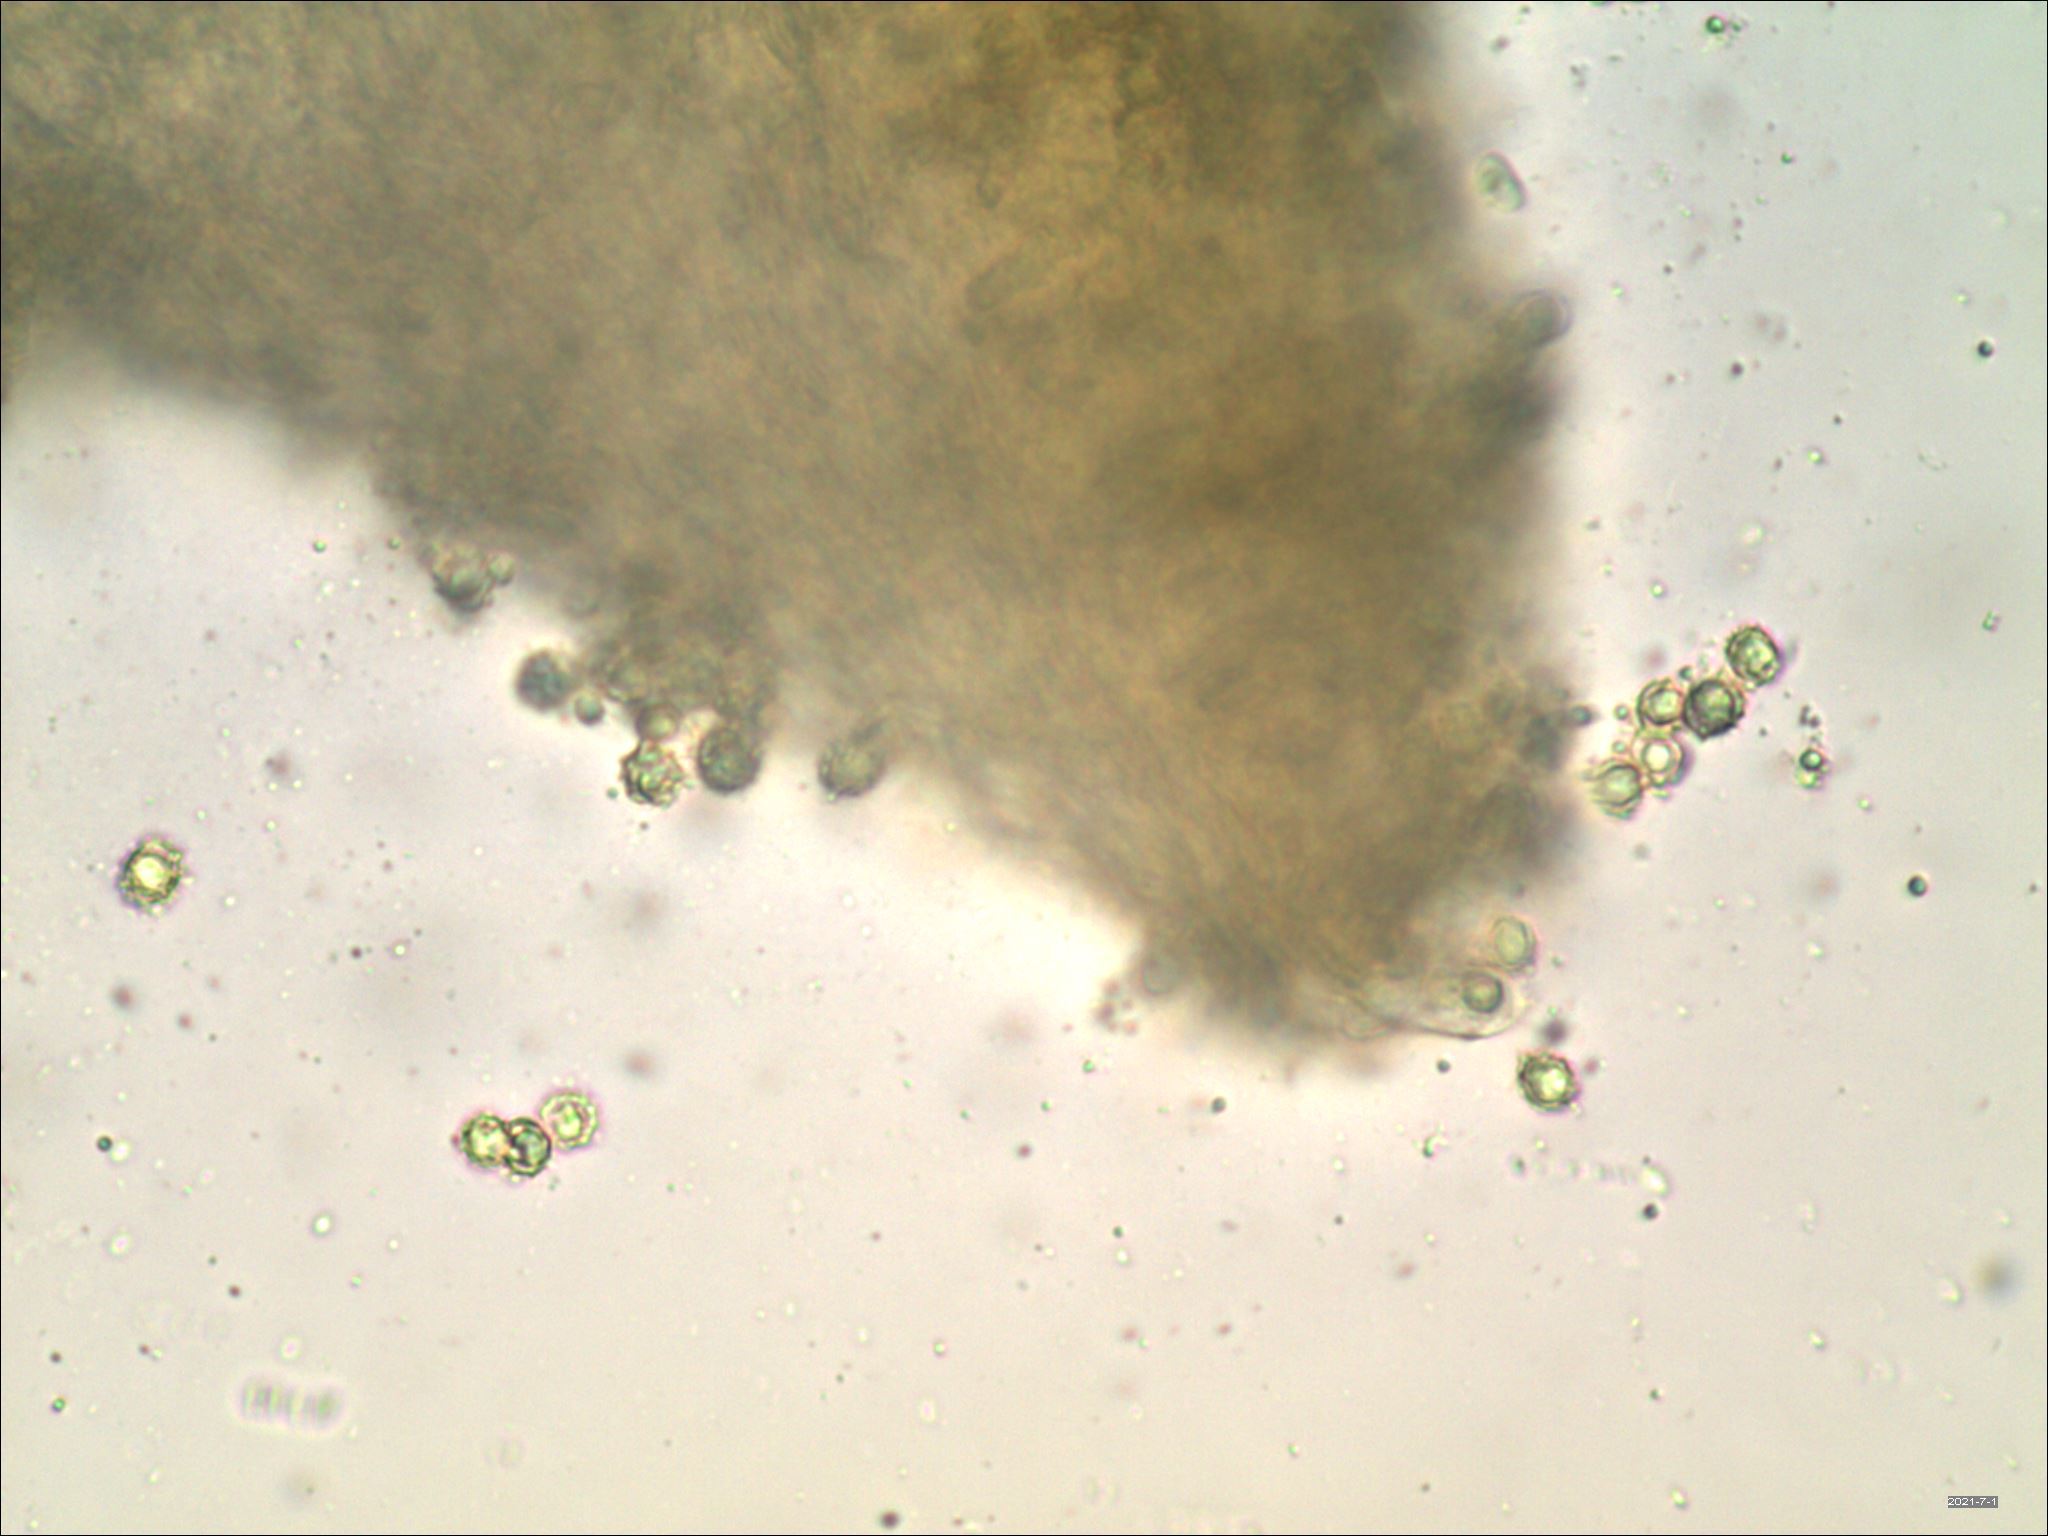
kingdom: Fungi
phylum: Basidiomycota
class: Agaricomycetes
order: Russulales
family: Russulaceae
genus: Lactarius
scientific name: Lactarius camphoratus
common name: Curry milkcap
